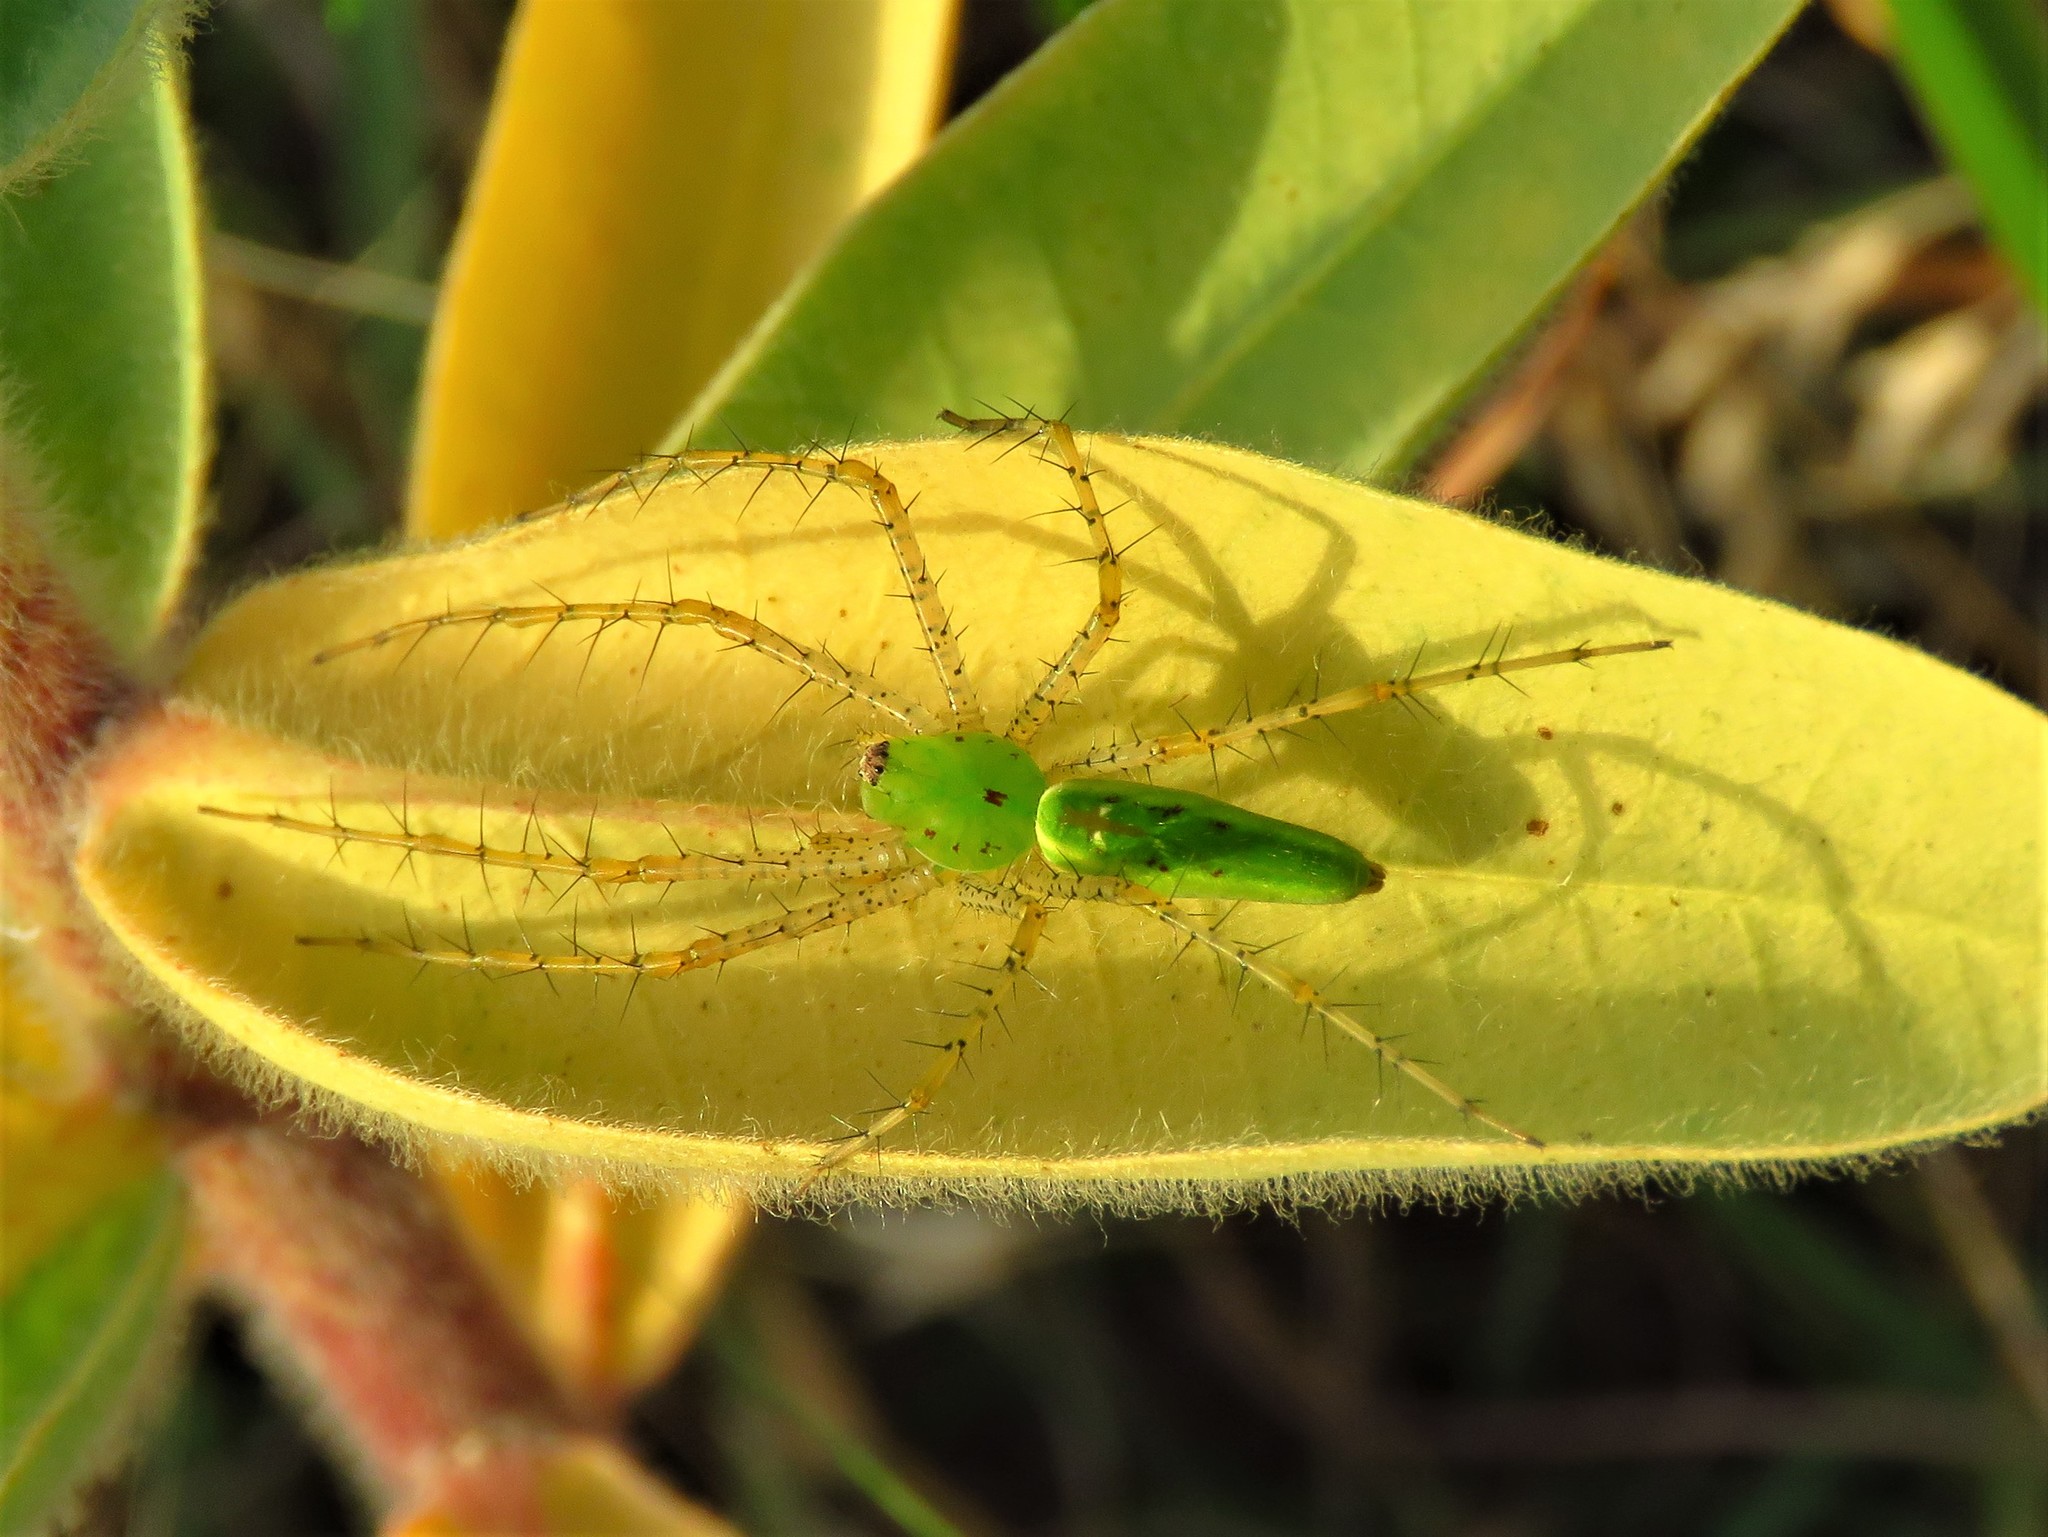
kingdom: Animalia
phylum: Arthropoda
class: Arachnida
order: Araneae
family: Oxyopidae
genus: Peucetia
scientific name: Peucetia viridans
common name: Lynx spiders
